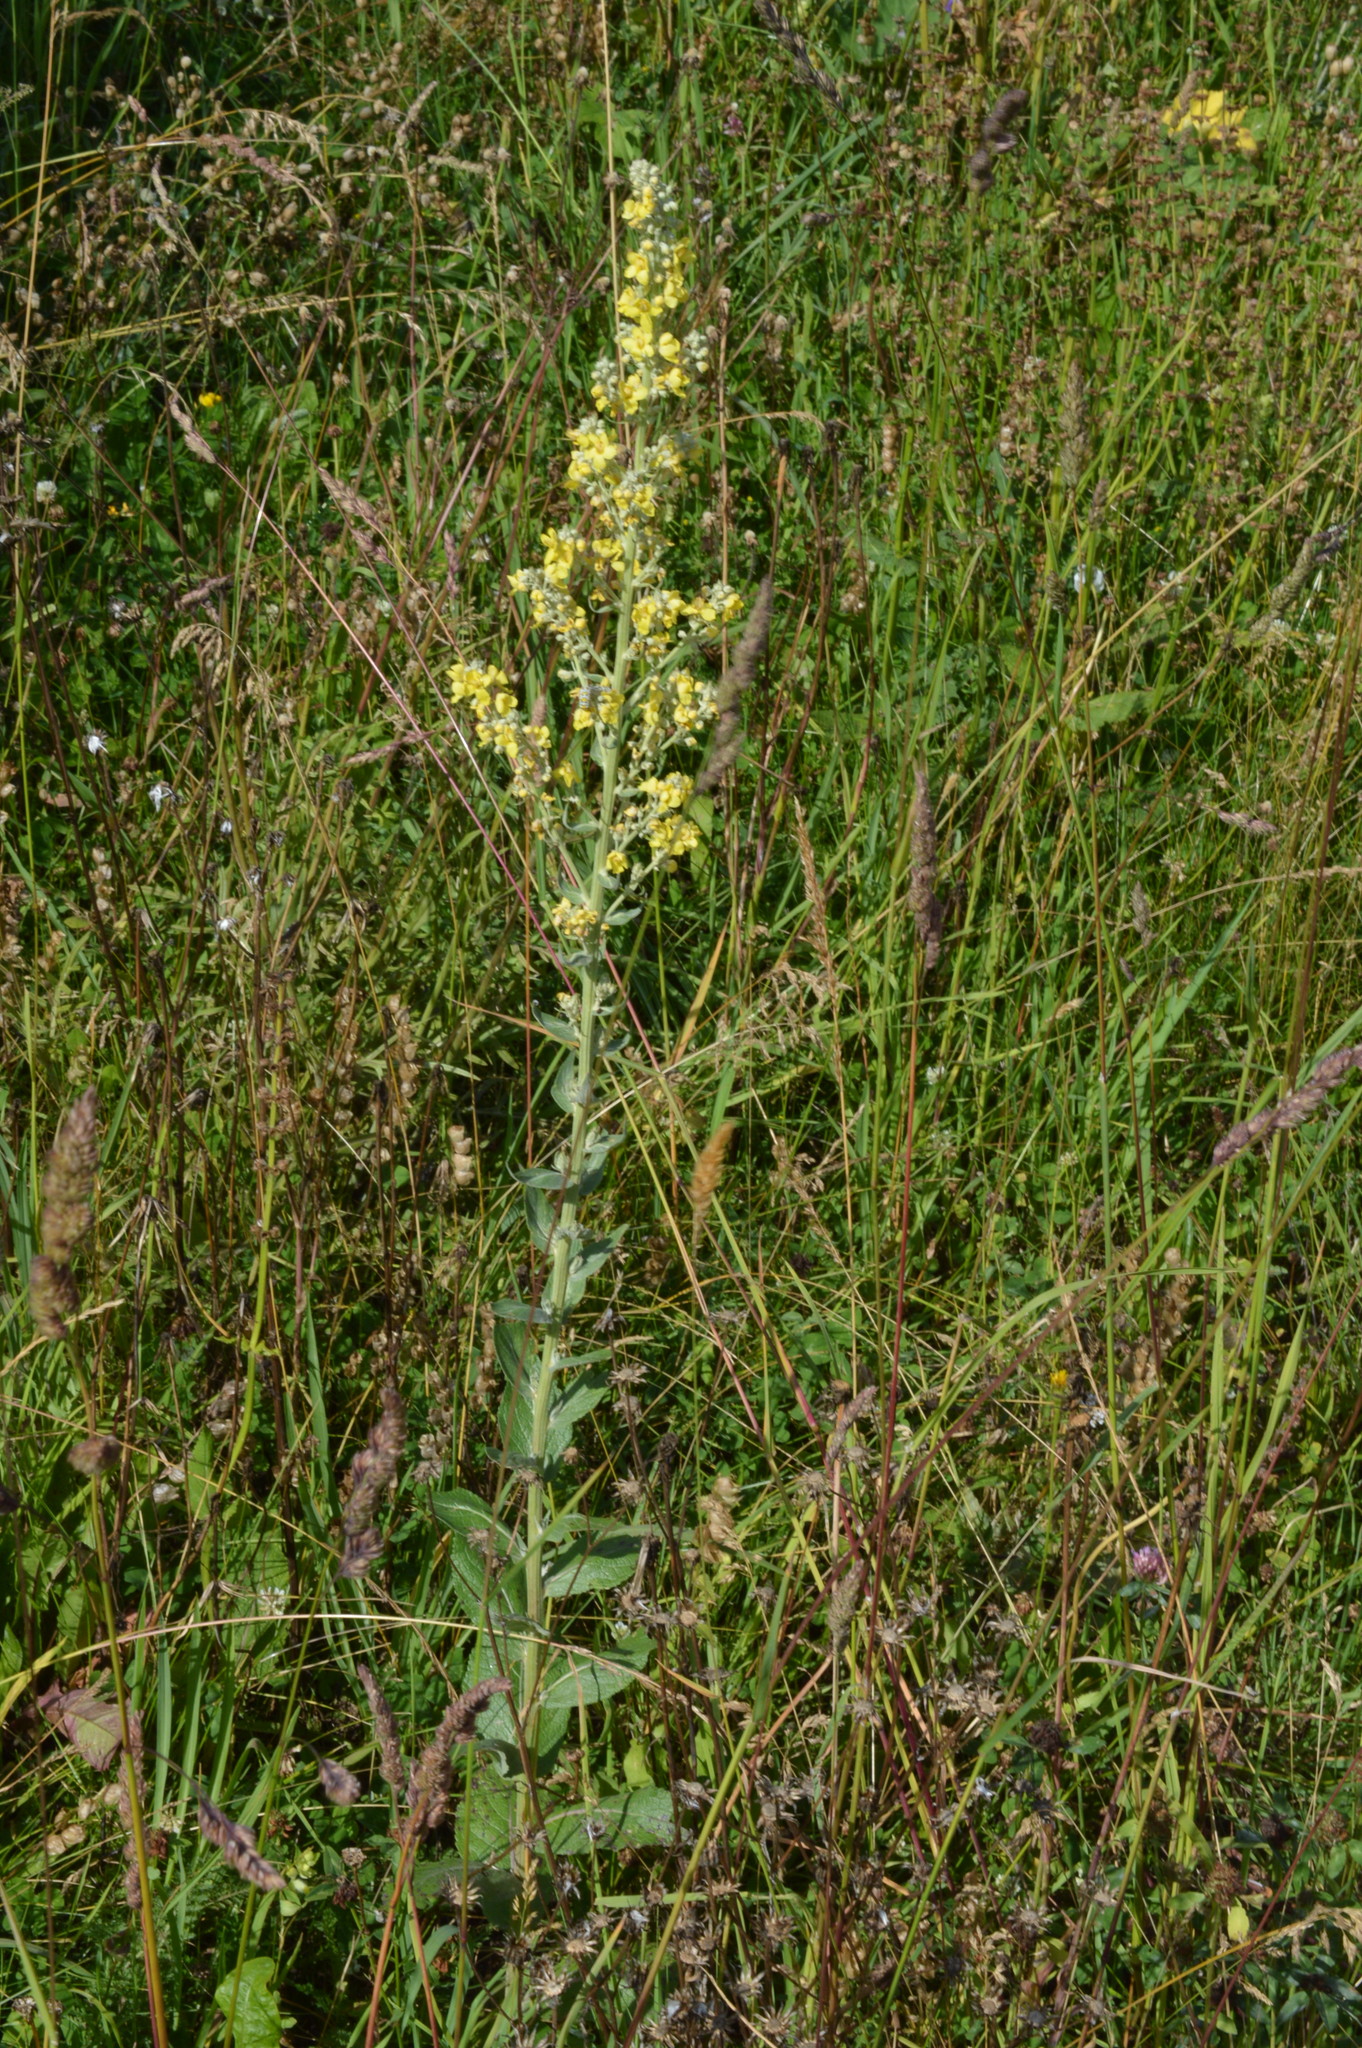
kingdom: Plantae
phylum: Tracheophyta
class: Magnoliopsida
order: Lamiales
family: Scrophulariaceae
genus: Verbascum
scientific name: Verbascum lychnitis
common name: White mullein
